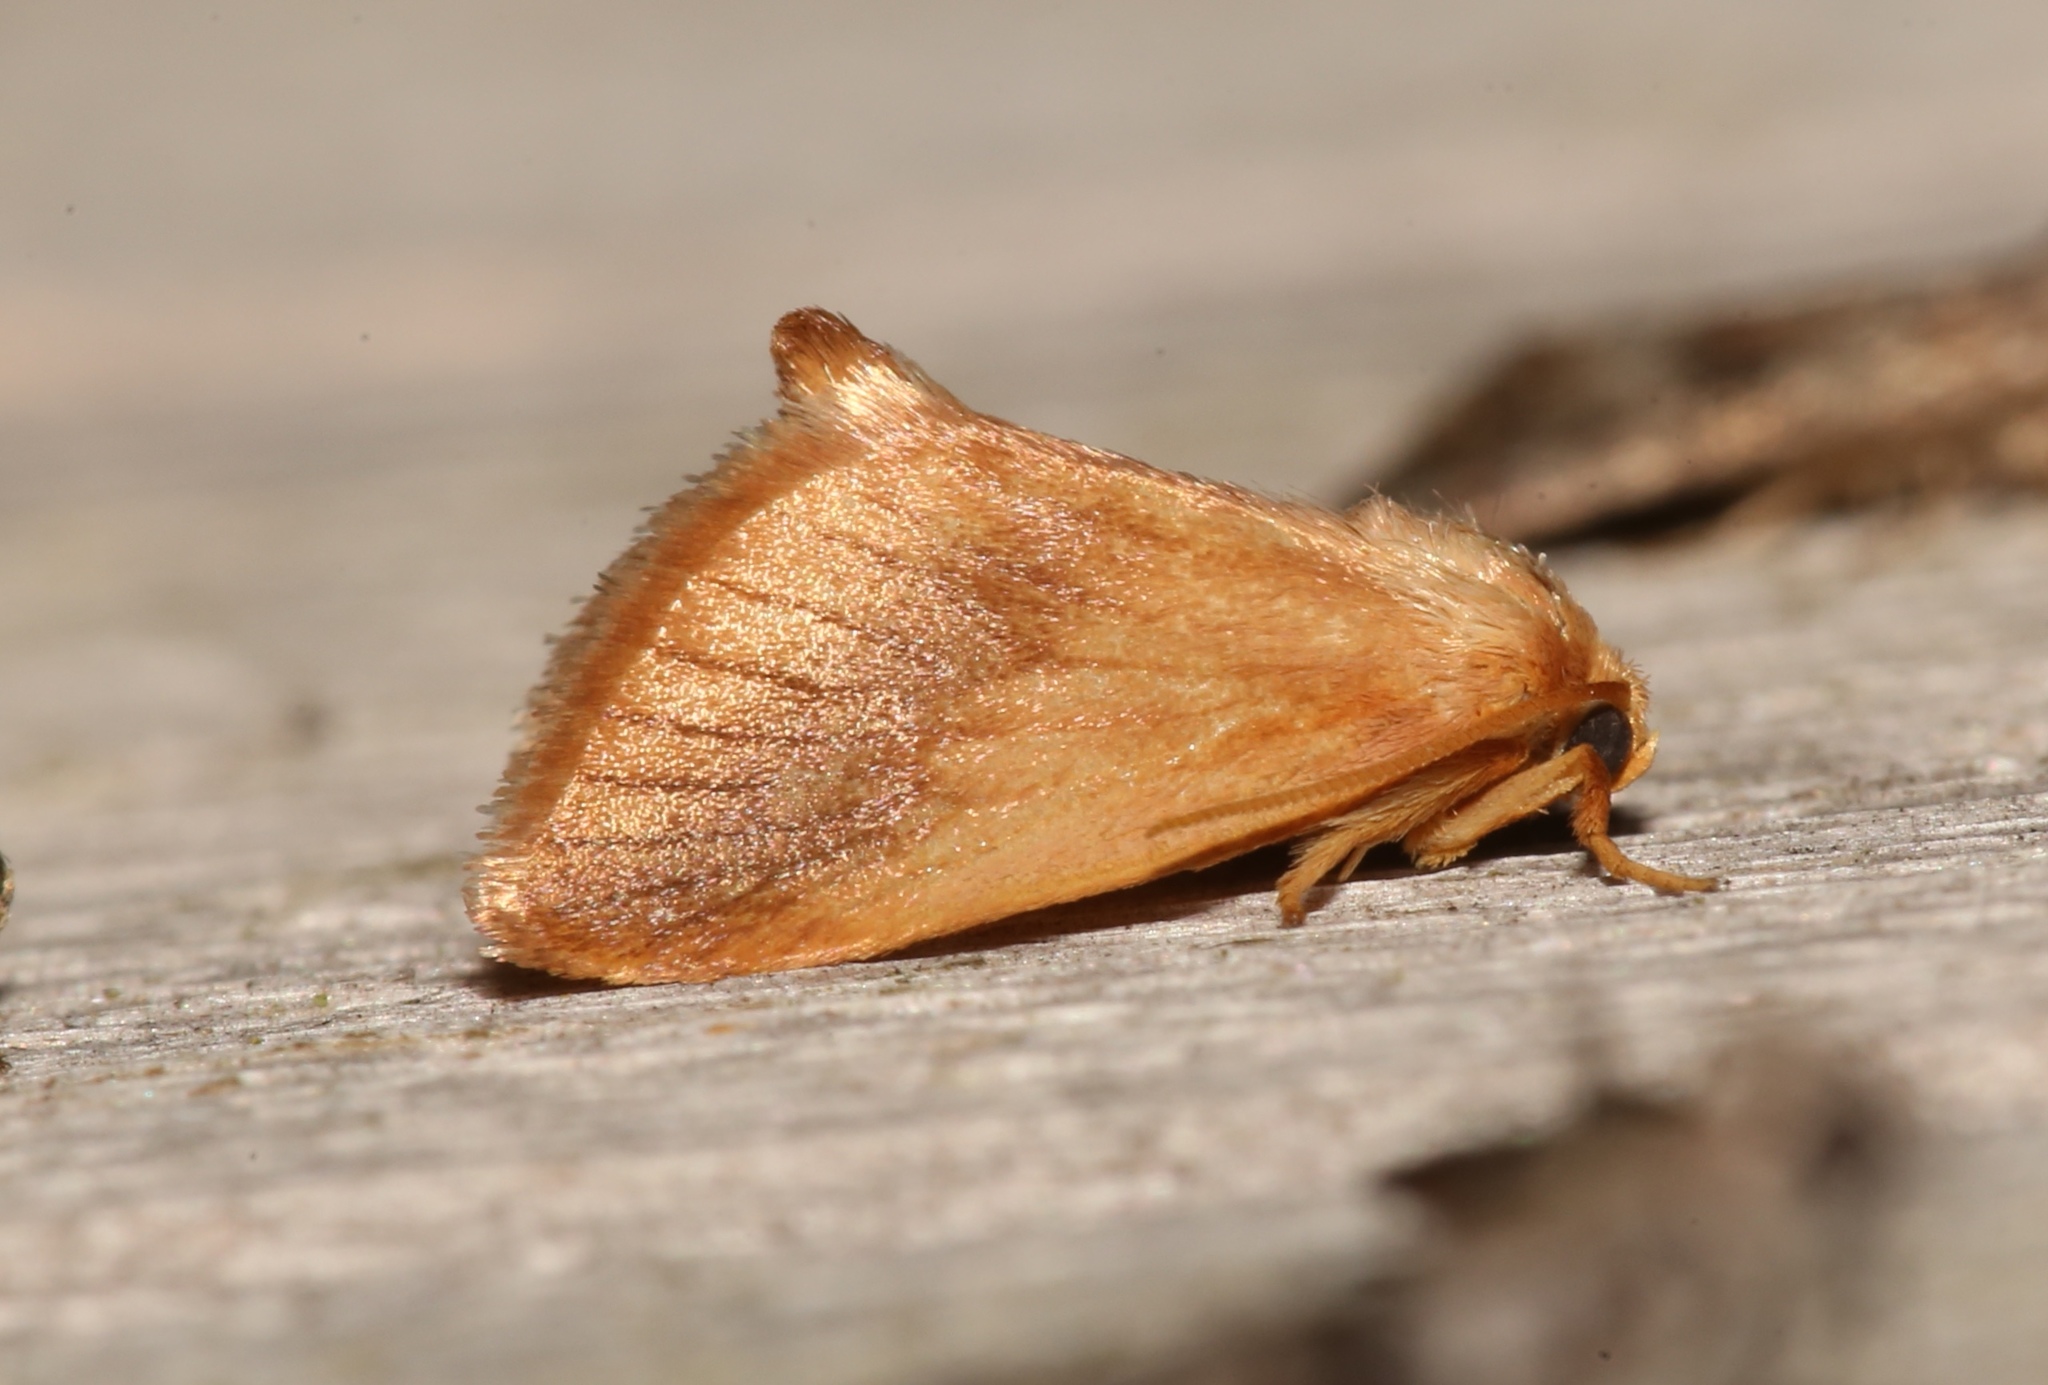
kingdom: Animalia
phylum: Arthropoda
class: Insecta
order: Lepidoptera
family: Limacodidae
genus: Tortricidia
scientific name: Tortricidia testacea
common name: Early button slug moth
